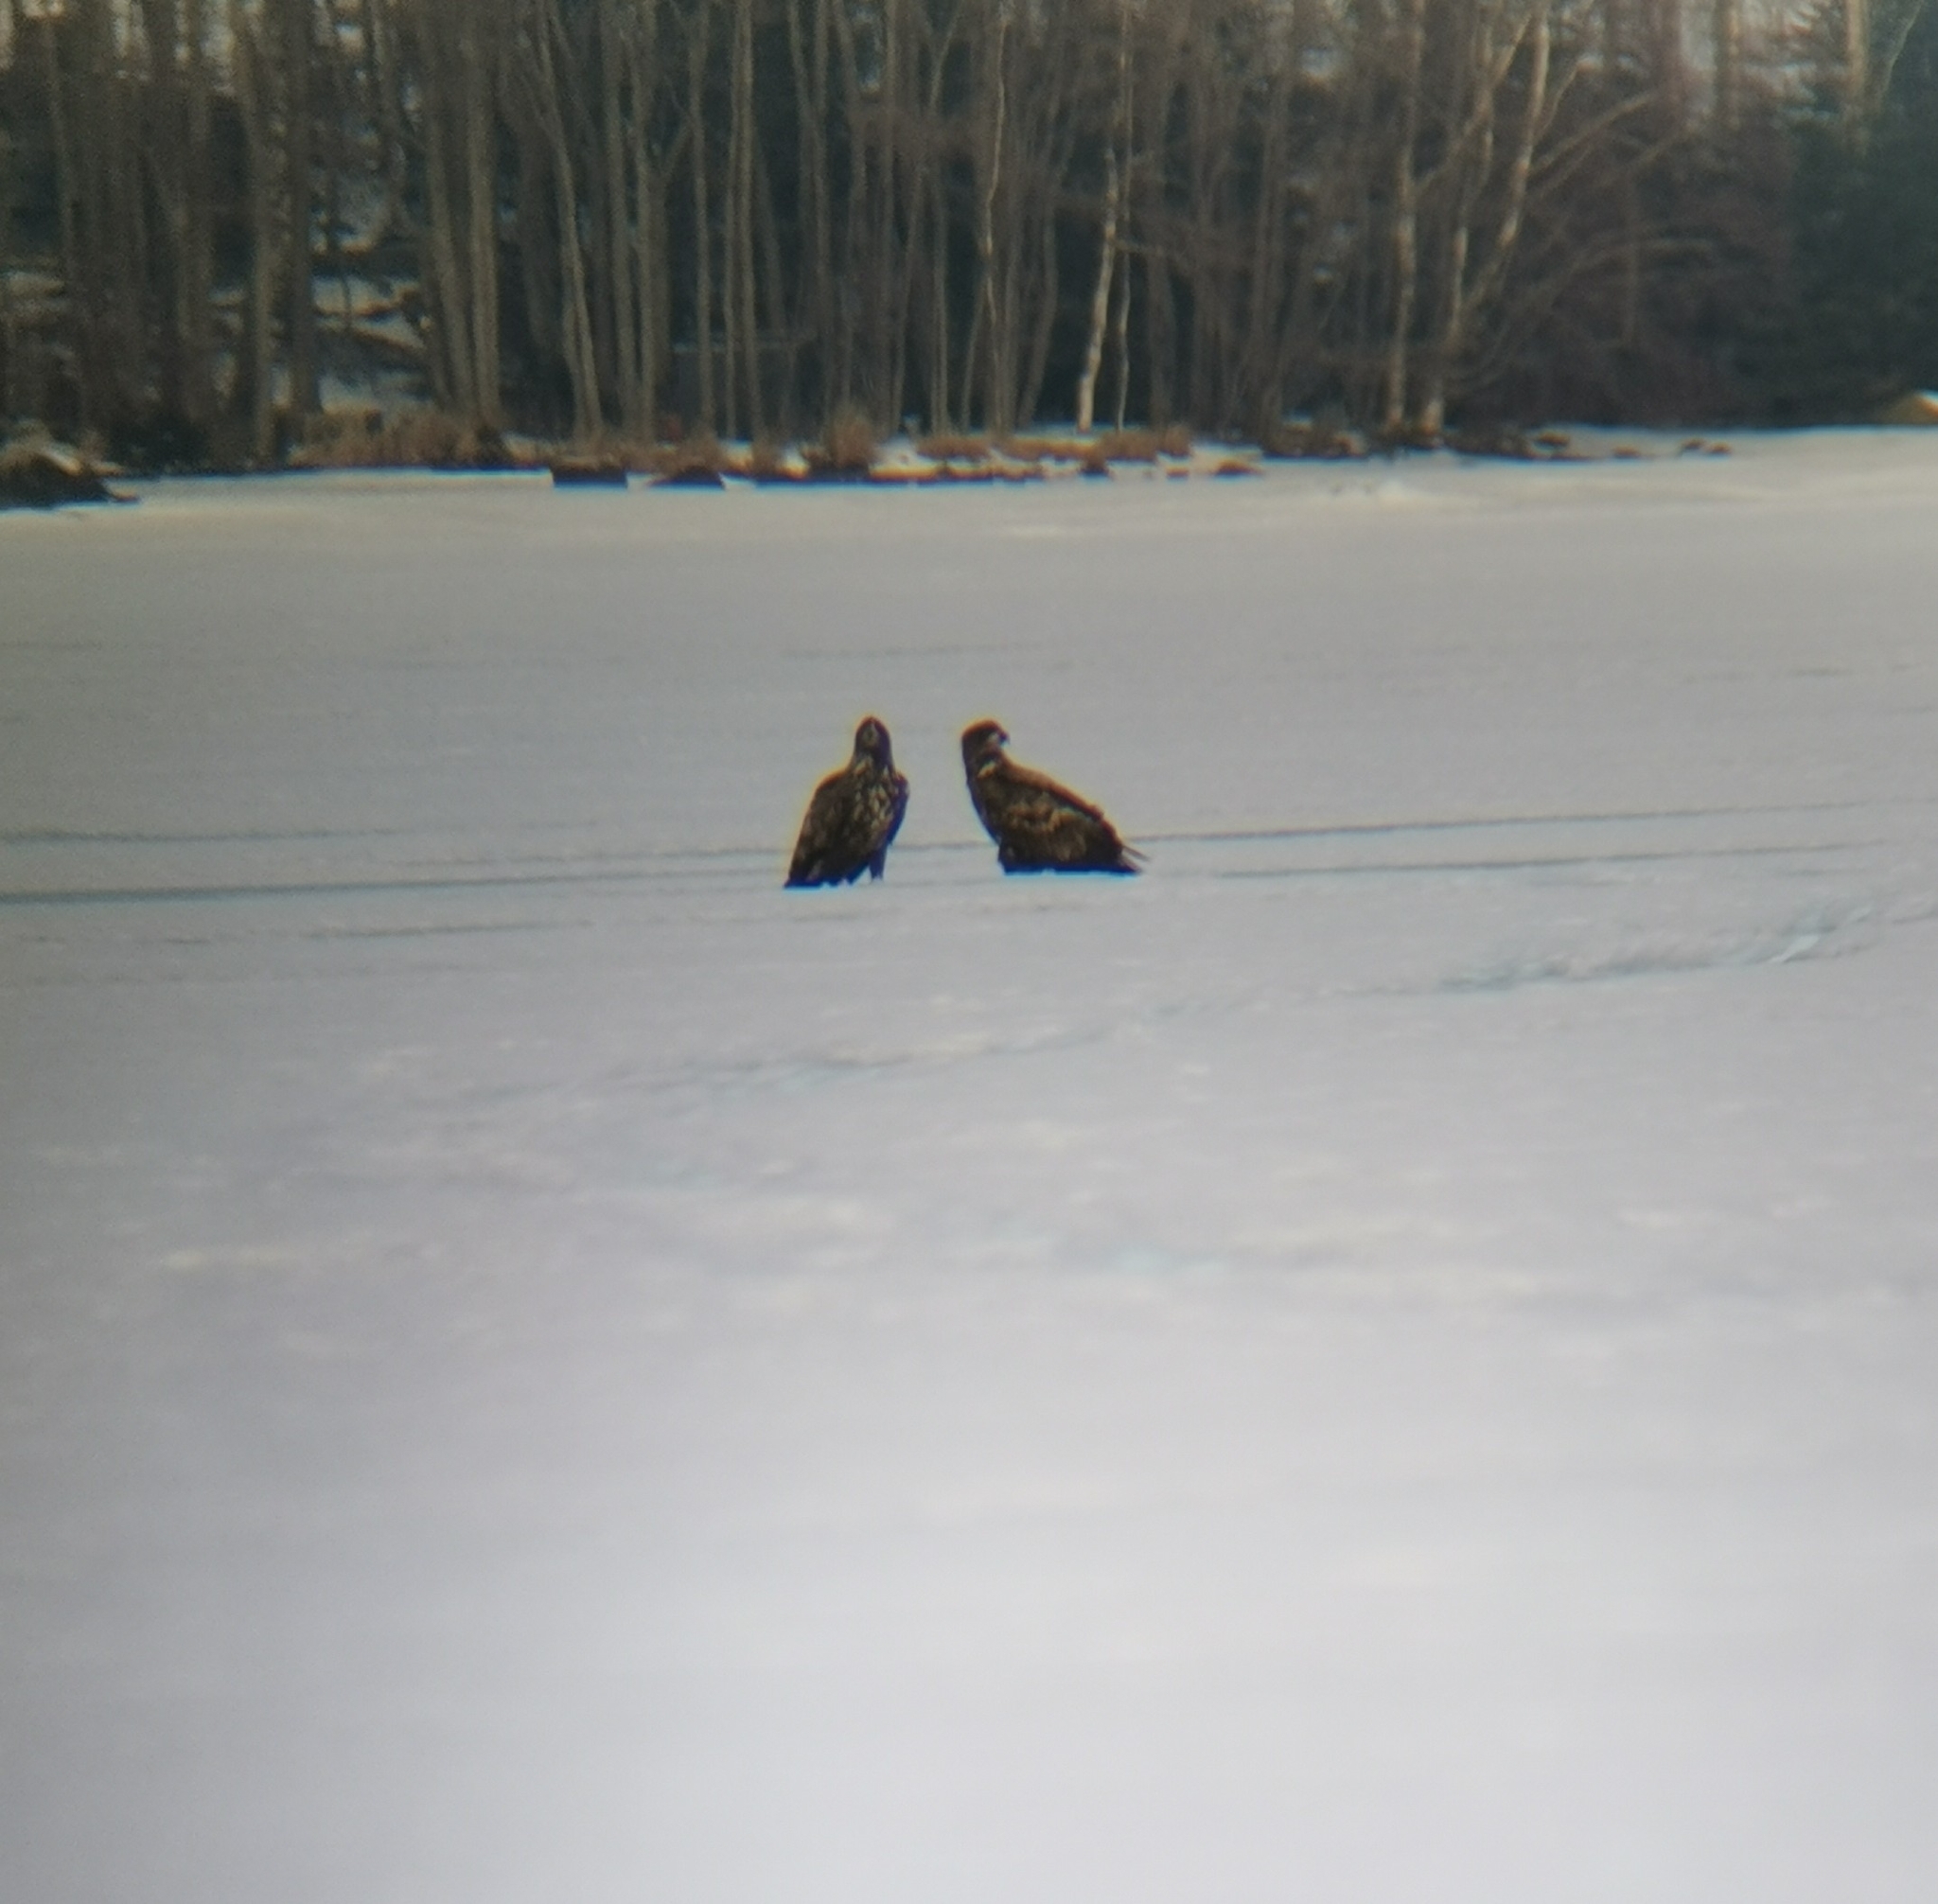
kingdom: Animalia
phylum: Chordata
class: Aves
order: Accipitriformes
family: Accipitridae
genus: Haliaeetus
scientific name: Haliaeetus albicilla
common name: White-tailed eagle
